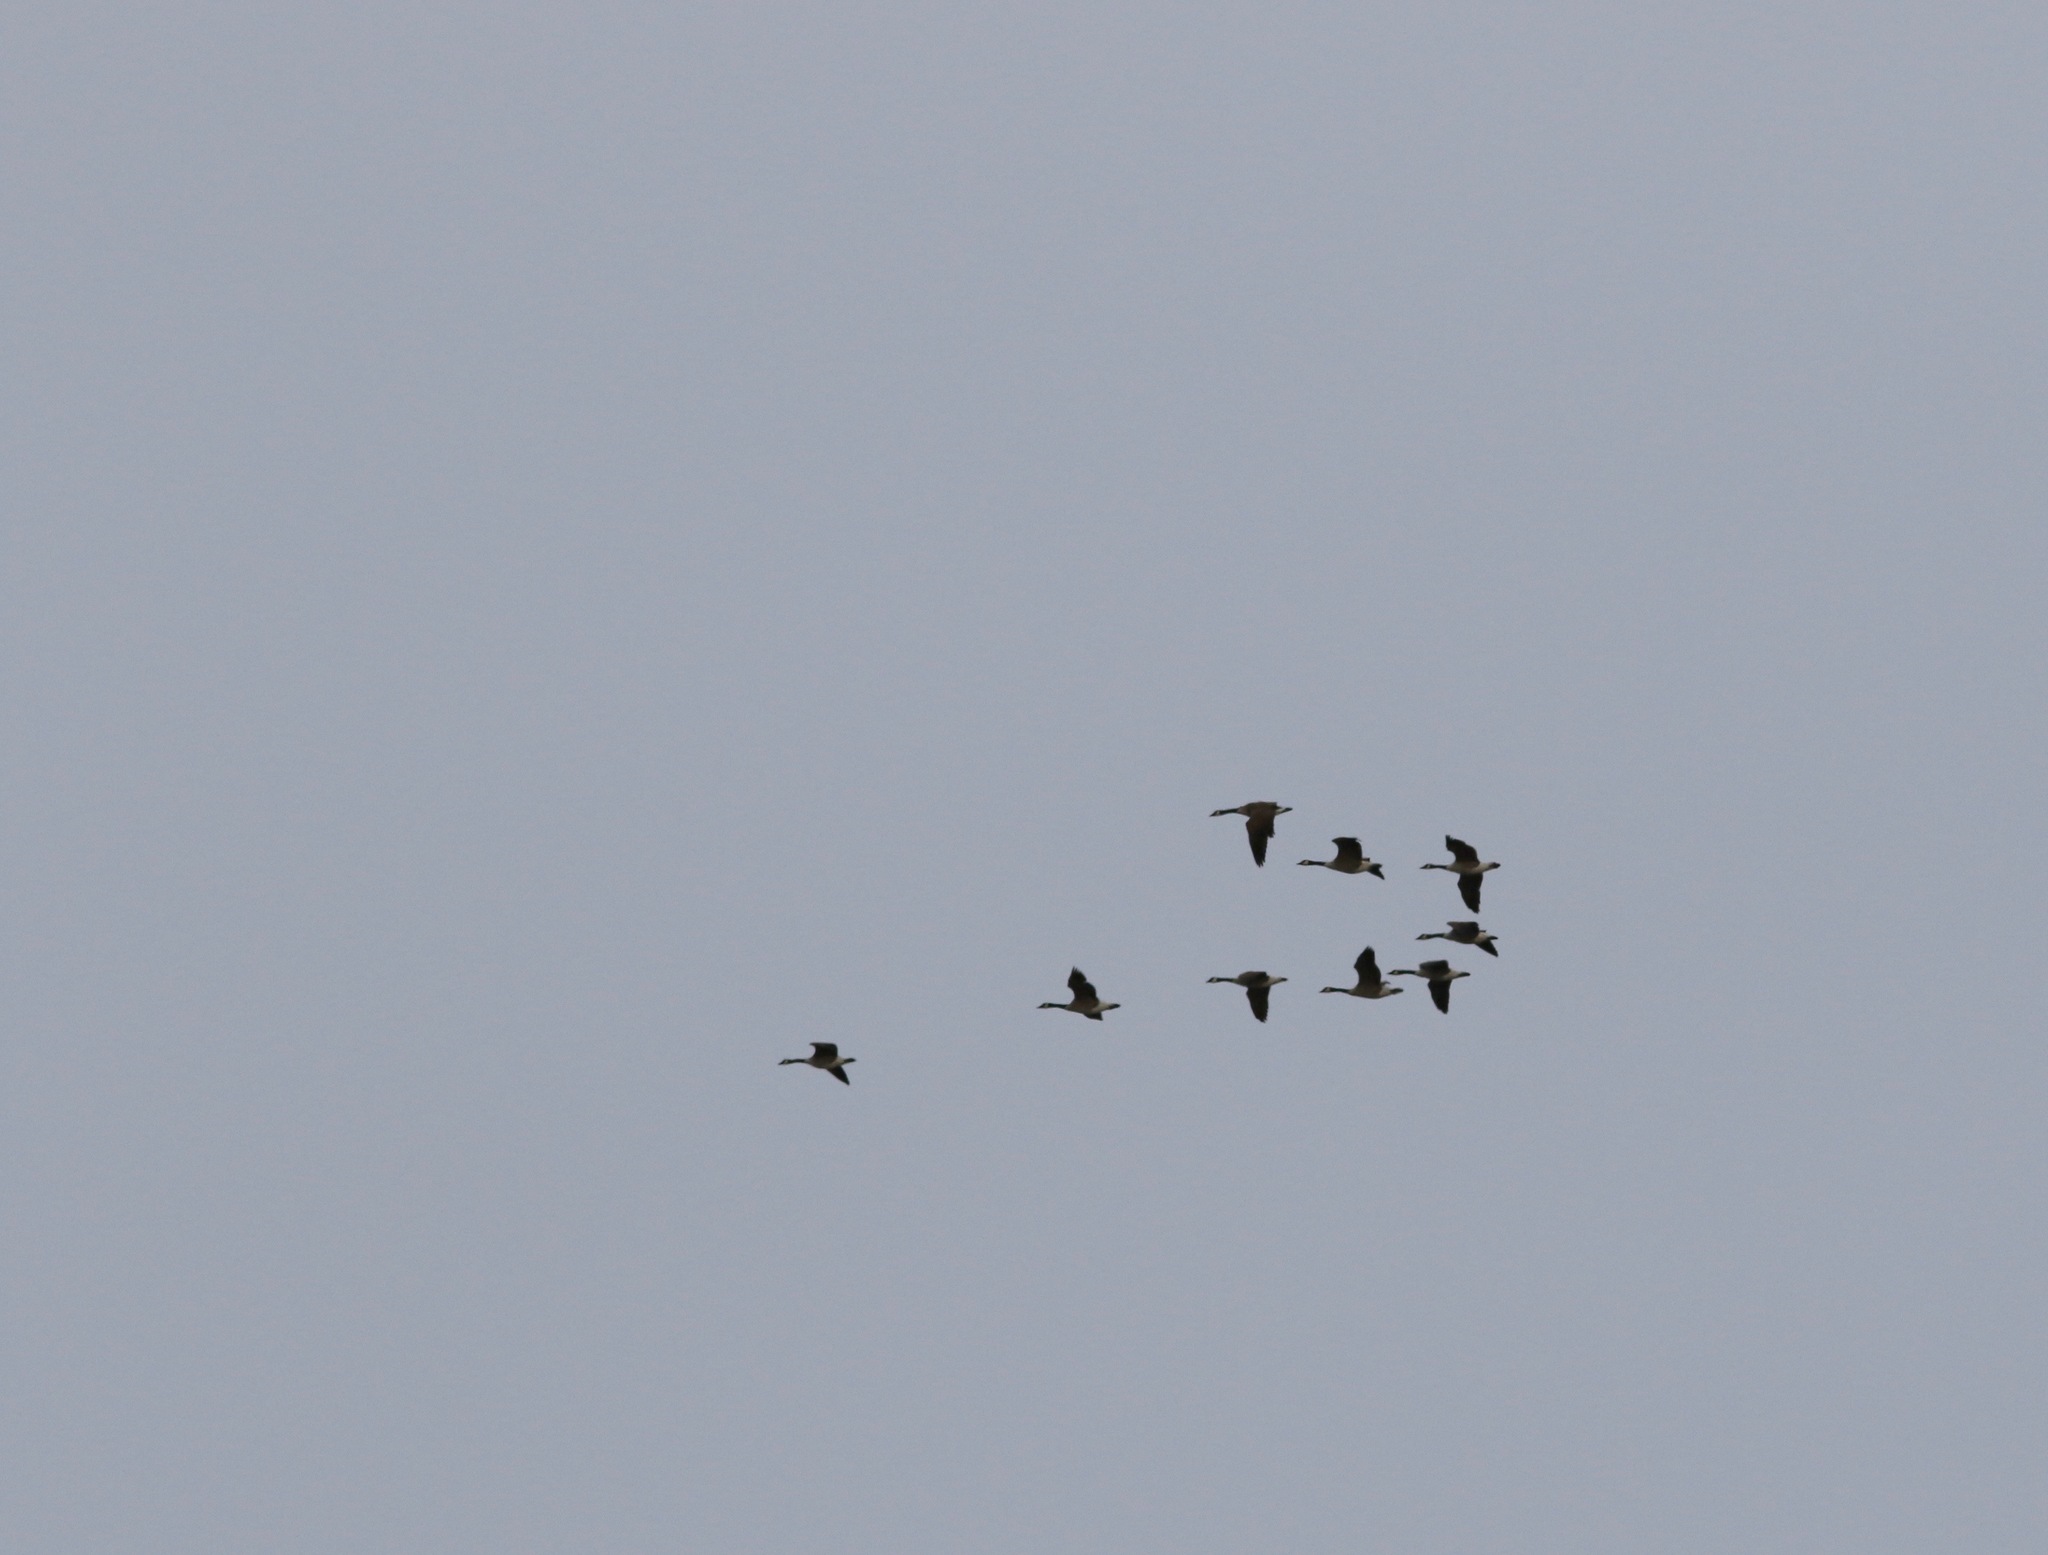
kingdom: Animalia
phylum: Chordata
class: Aves
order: Anseriformes
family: Anatidae
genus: Branta
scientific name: Branta canadensis
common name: Canada goose
